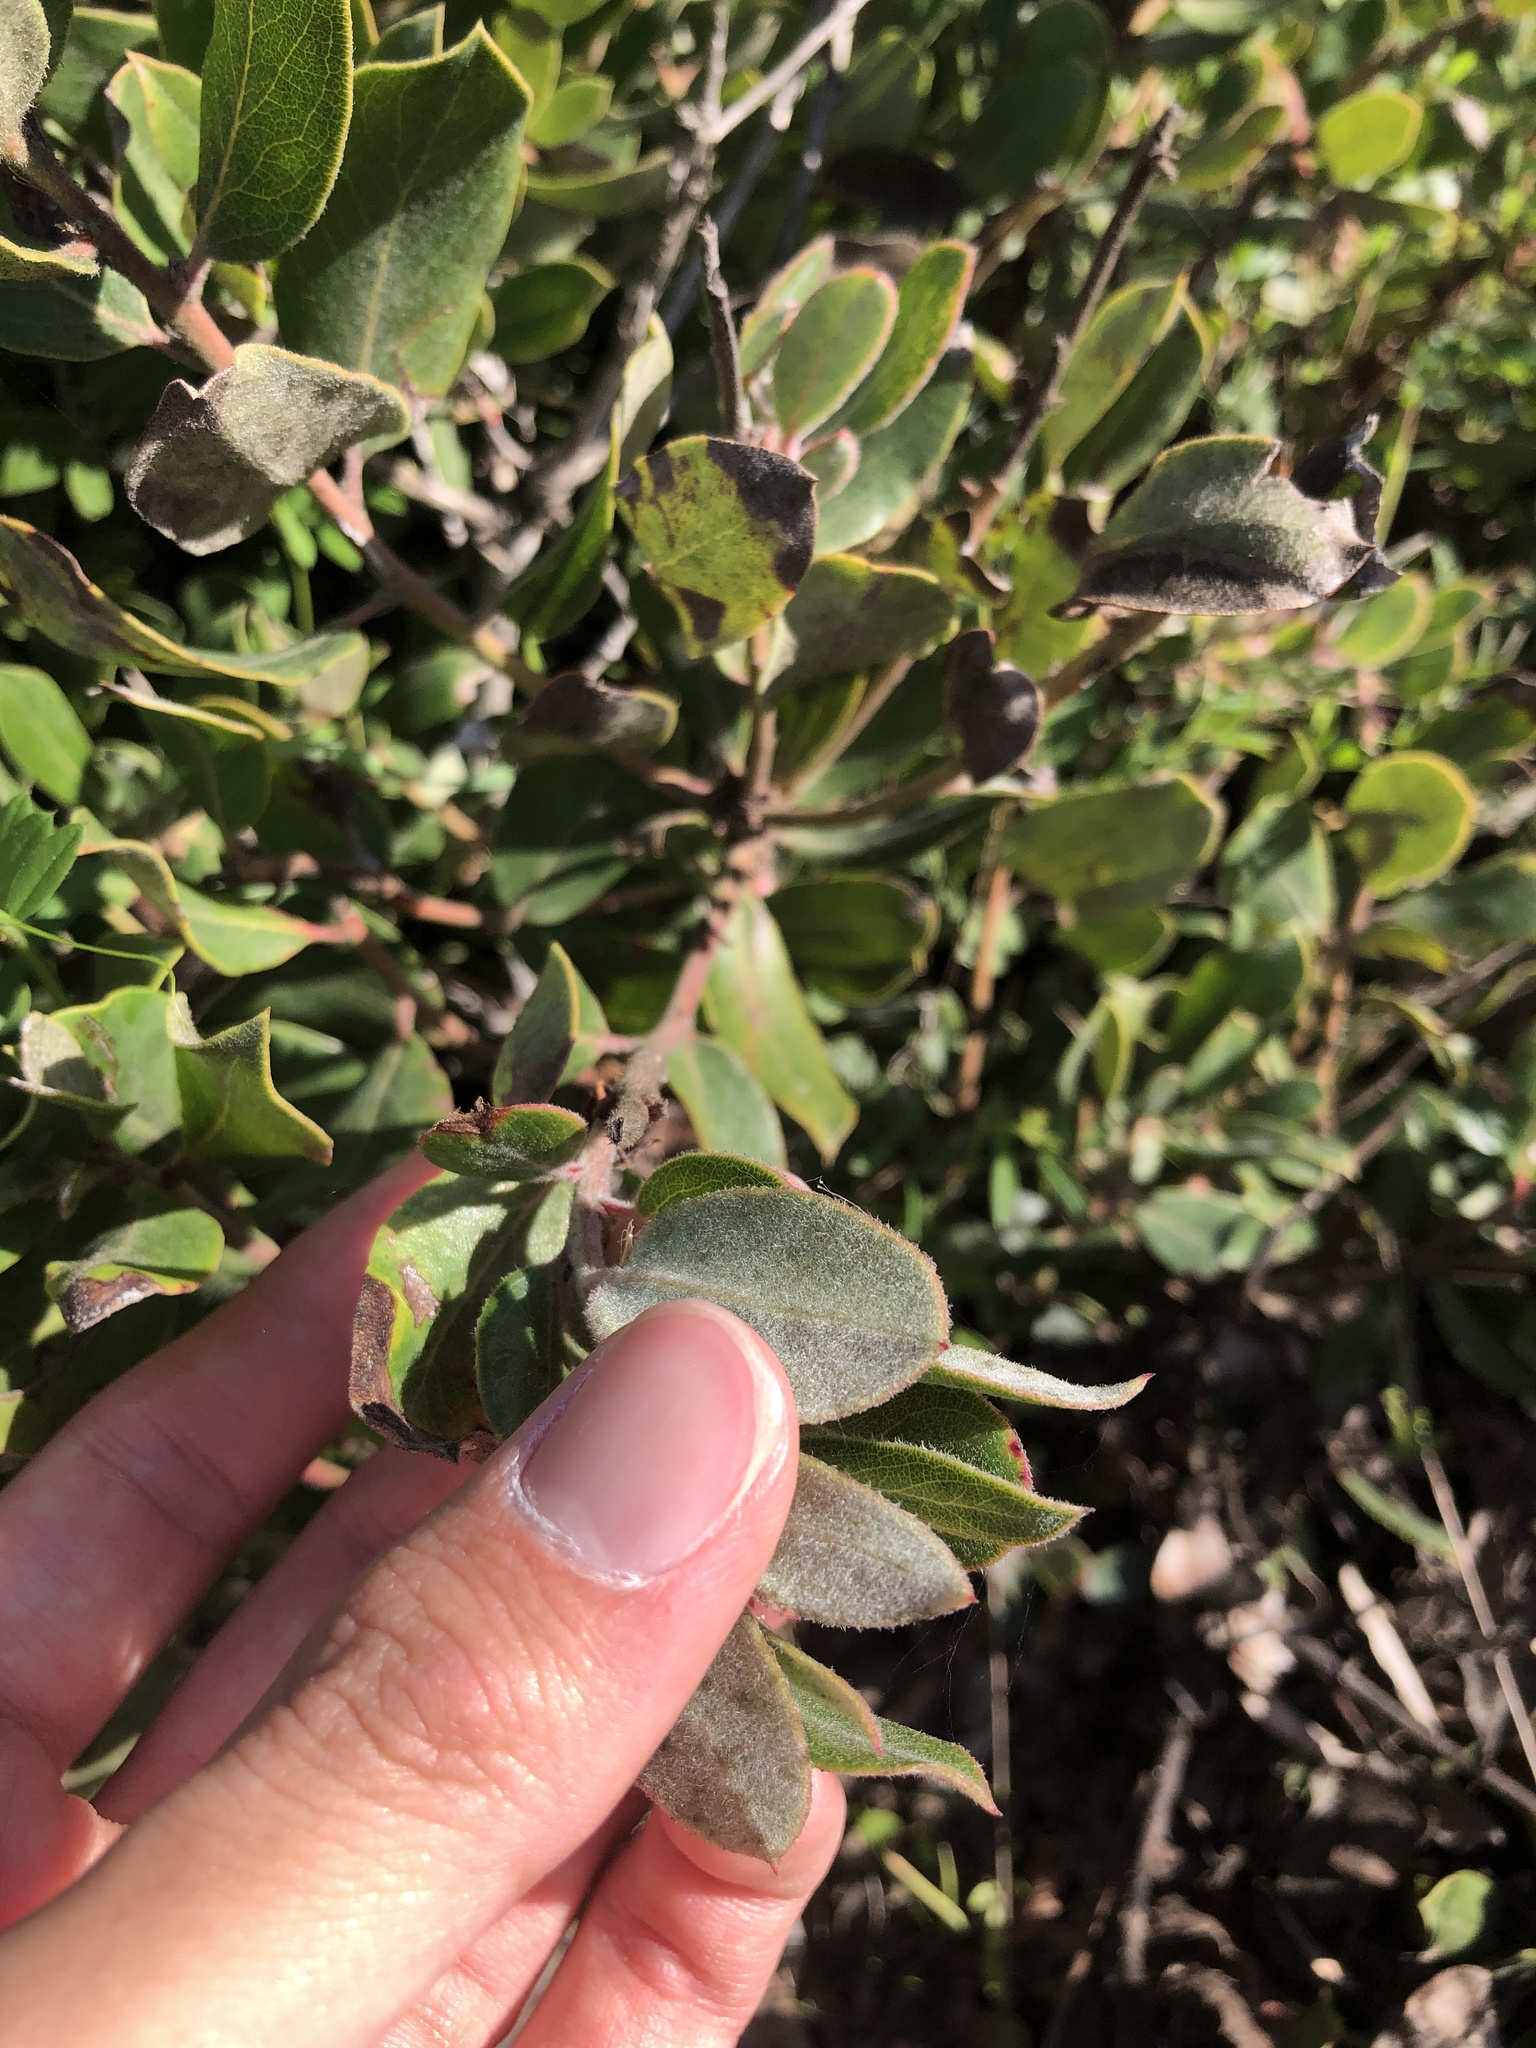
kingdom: Plantae
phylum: Tracheophyta
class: Magnoliopsida
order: Ericales
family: Ericaceae
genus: Arctostaphylos
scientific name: Arctostaphylos tomentosa
